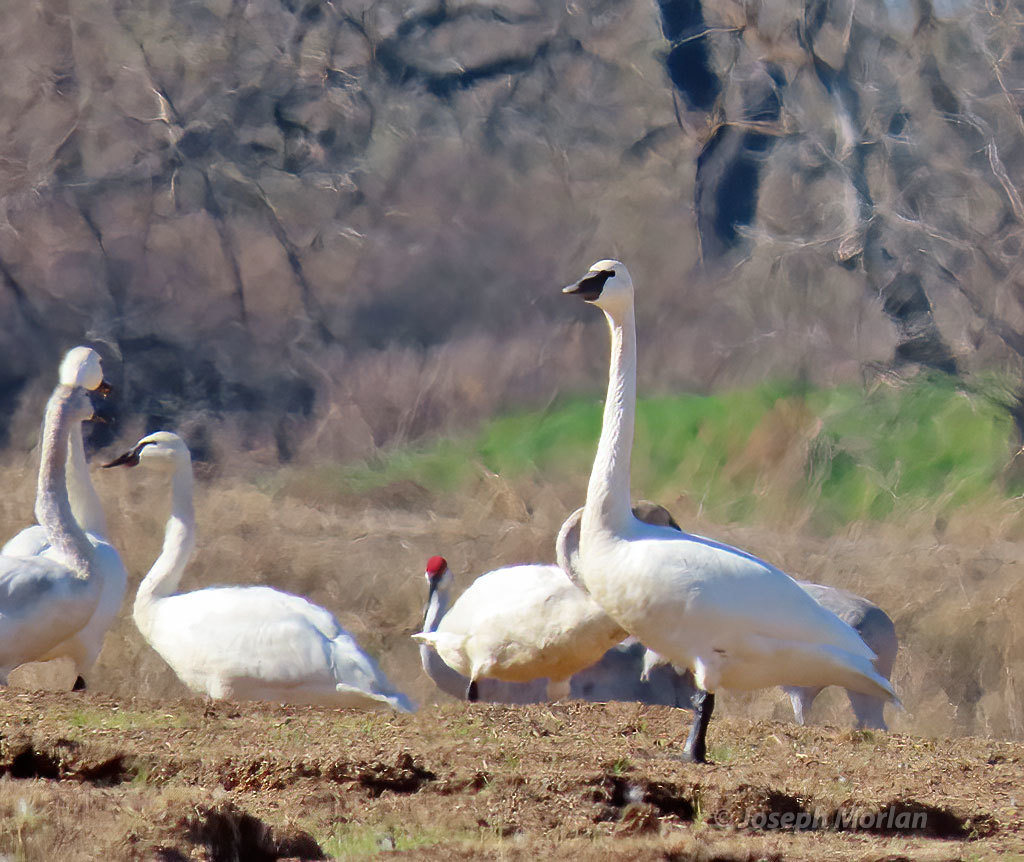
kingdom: Animalia
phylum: Chordata
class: Aves
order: Anseriformes
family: Anatidae
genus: Cygnus
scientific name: Cygnus buccinator
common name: Trumpeter swan
